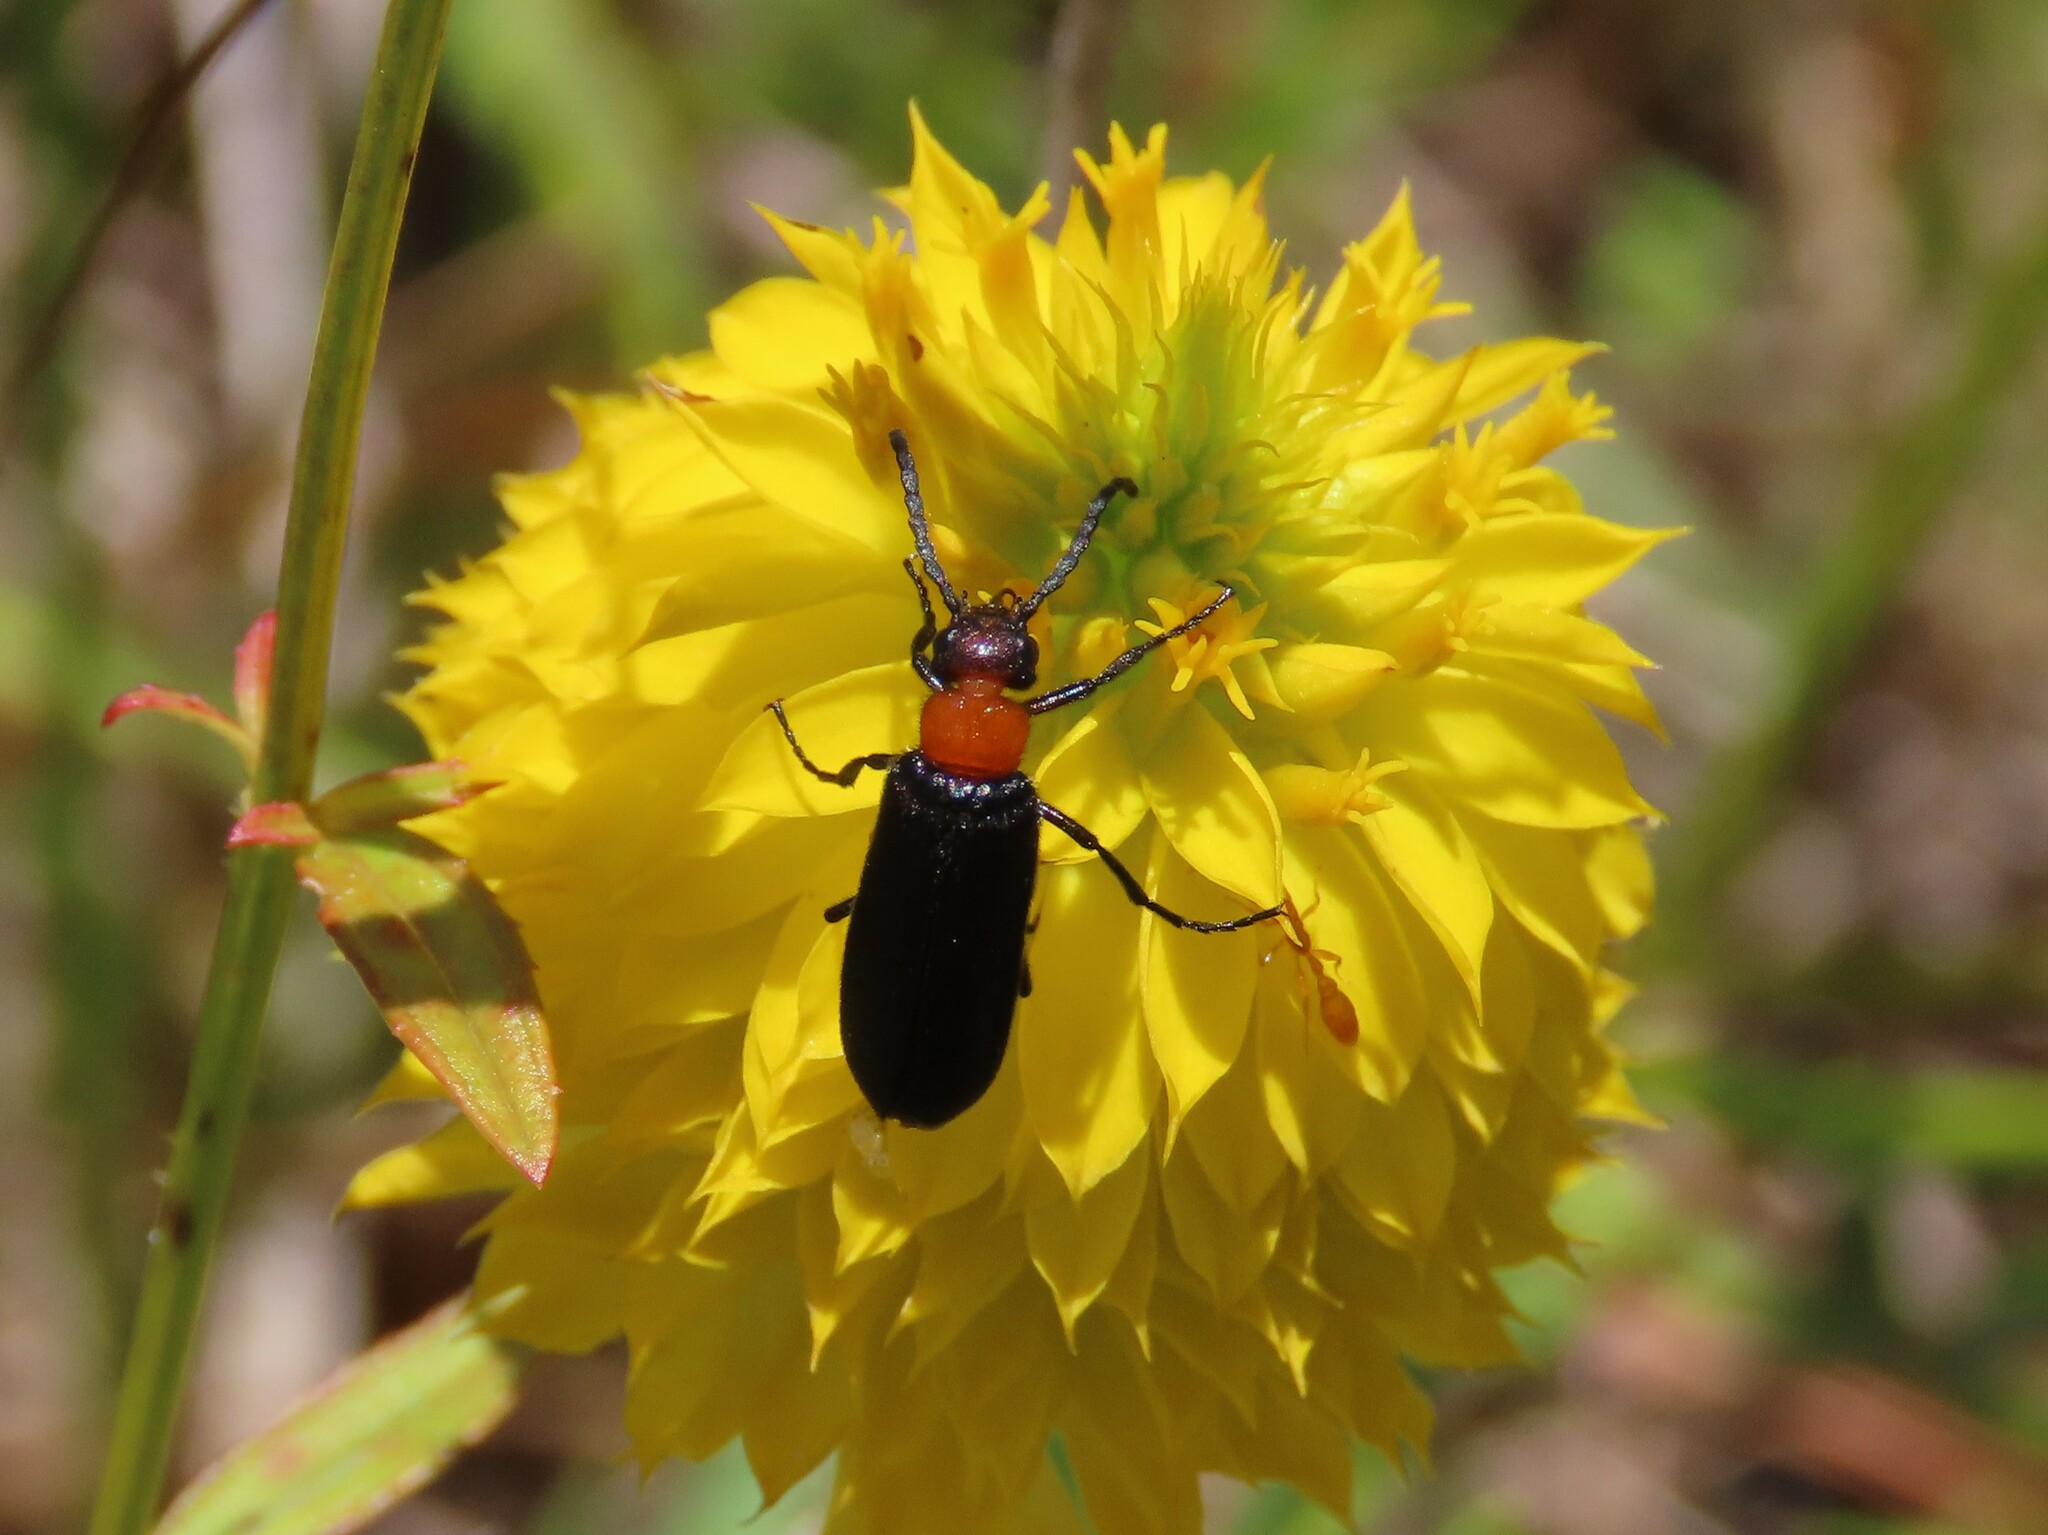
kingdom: Animalia
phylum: Arthropoda
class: Insecta
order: Coleoptera
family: Meloidae
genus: Nemognatha
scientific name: Nemognatha nemorensis
